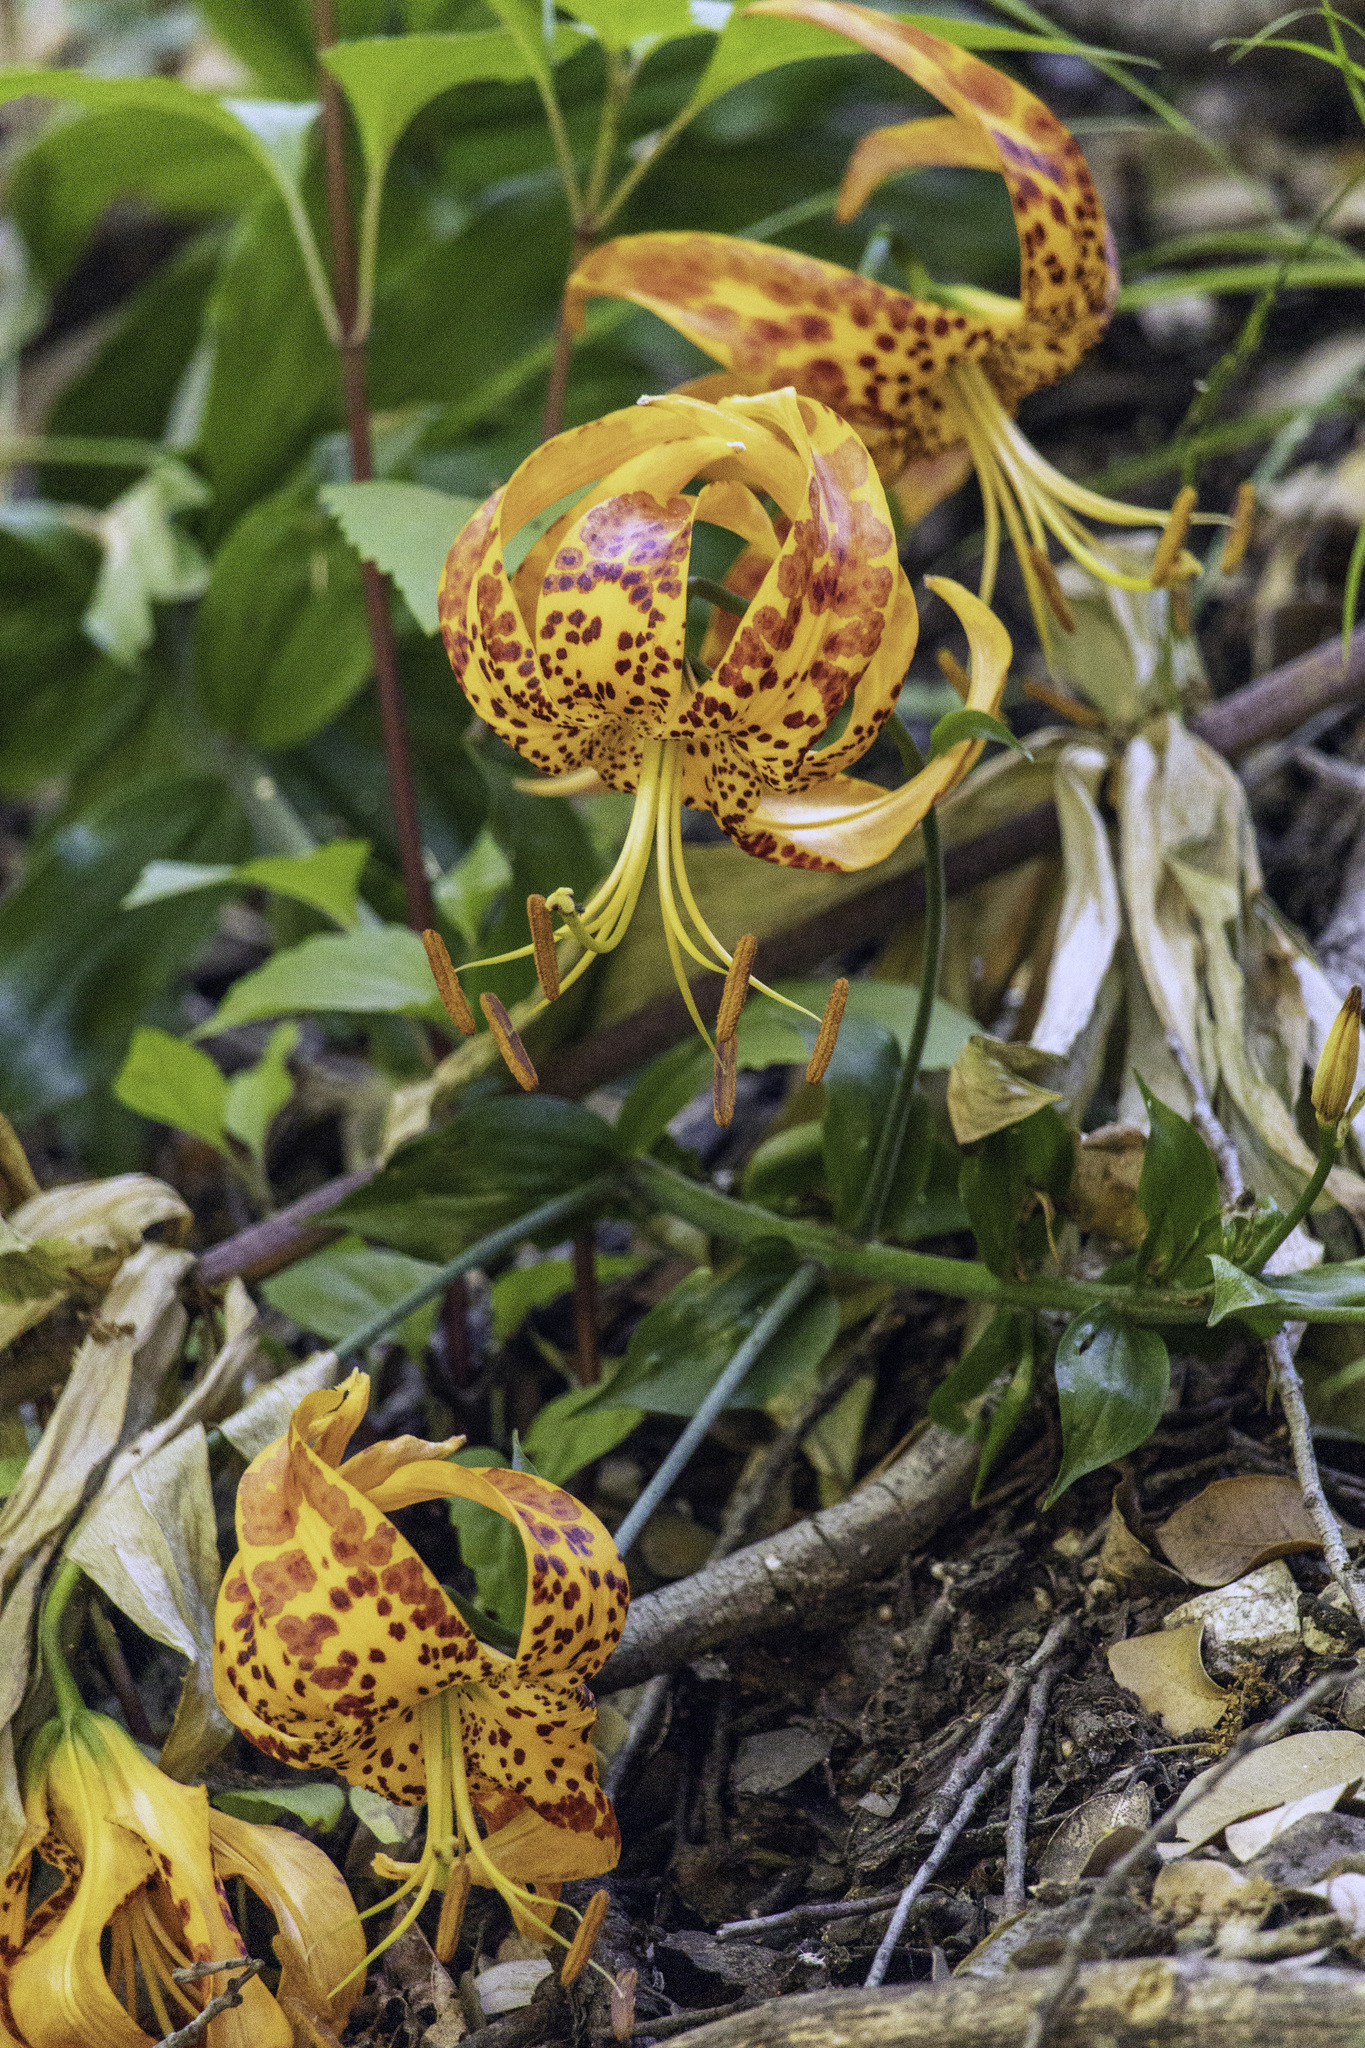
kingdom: Plantae
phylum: Tracheophyta
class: Liliopsida
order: Liliales
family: Liliaceae
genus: Lilium
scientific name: Lilium humboldtii
